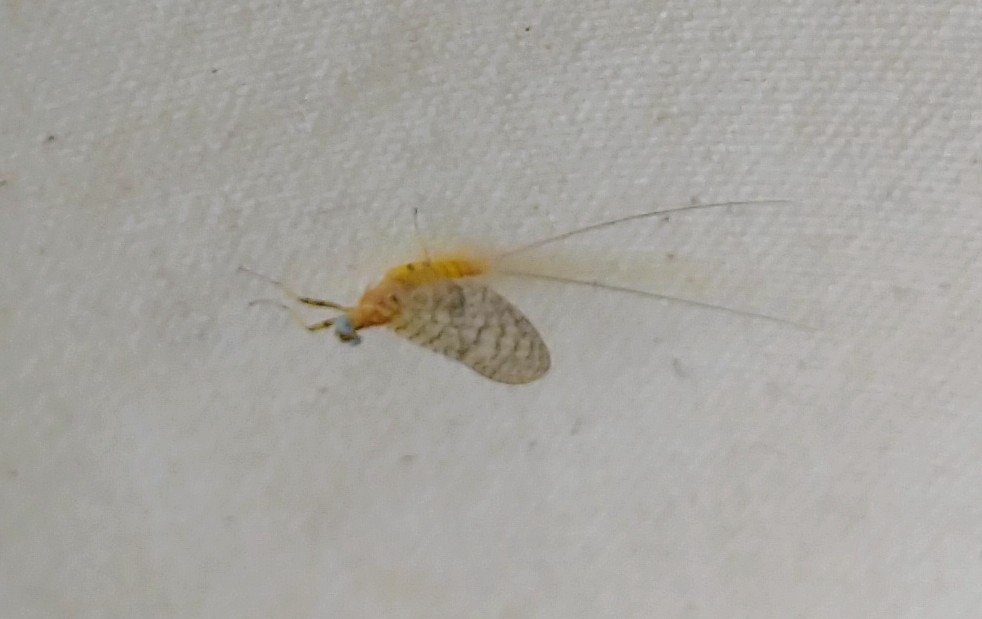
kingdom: Animalia
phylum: Arthropoda
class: Insecta
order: Ephemeroptera
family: Heptageniidae
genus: Maccaffertium
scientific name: Maccaffertium mediopunctatum
